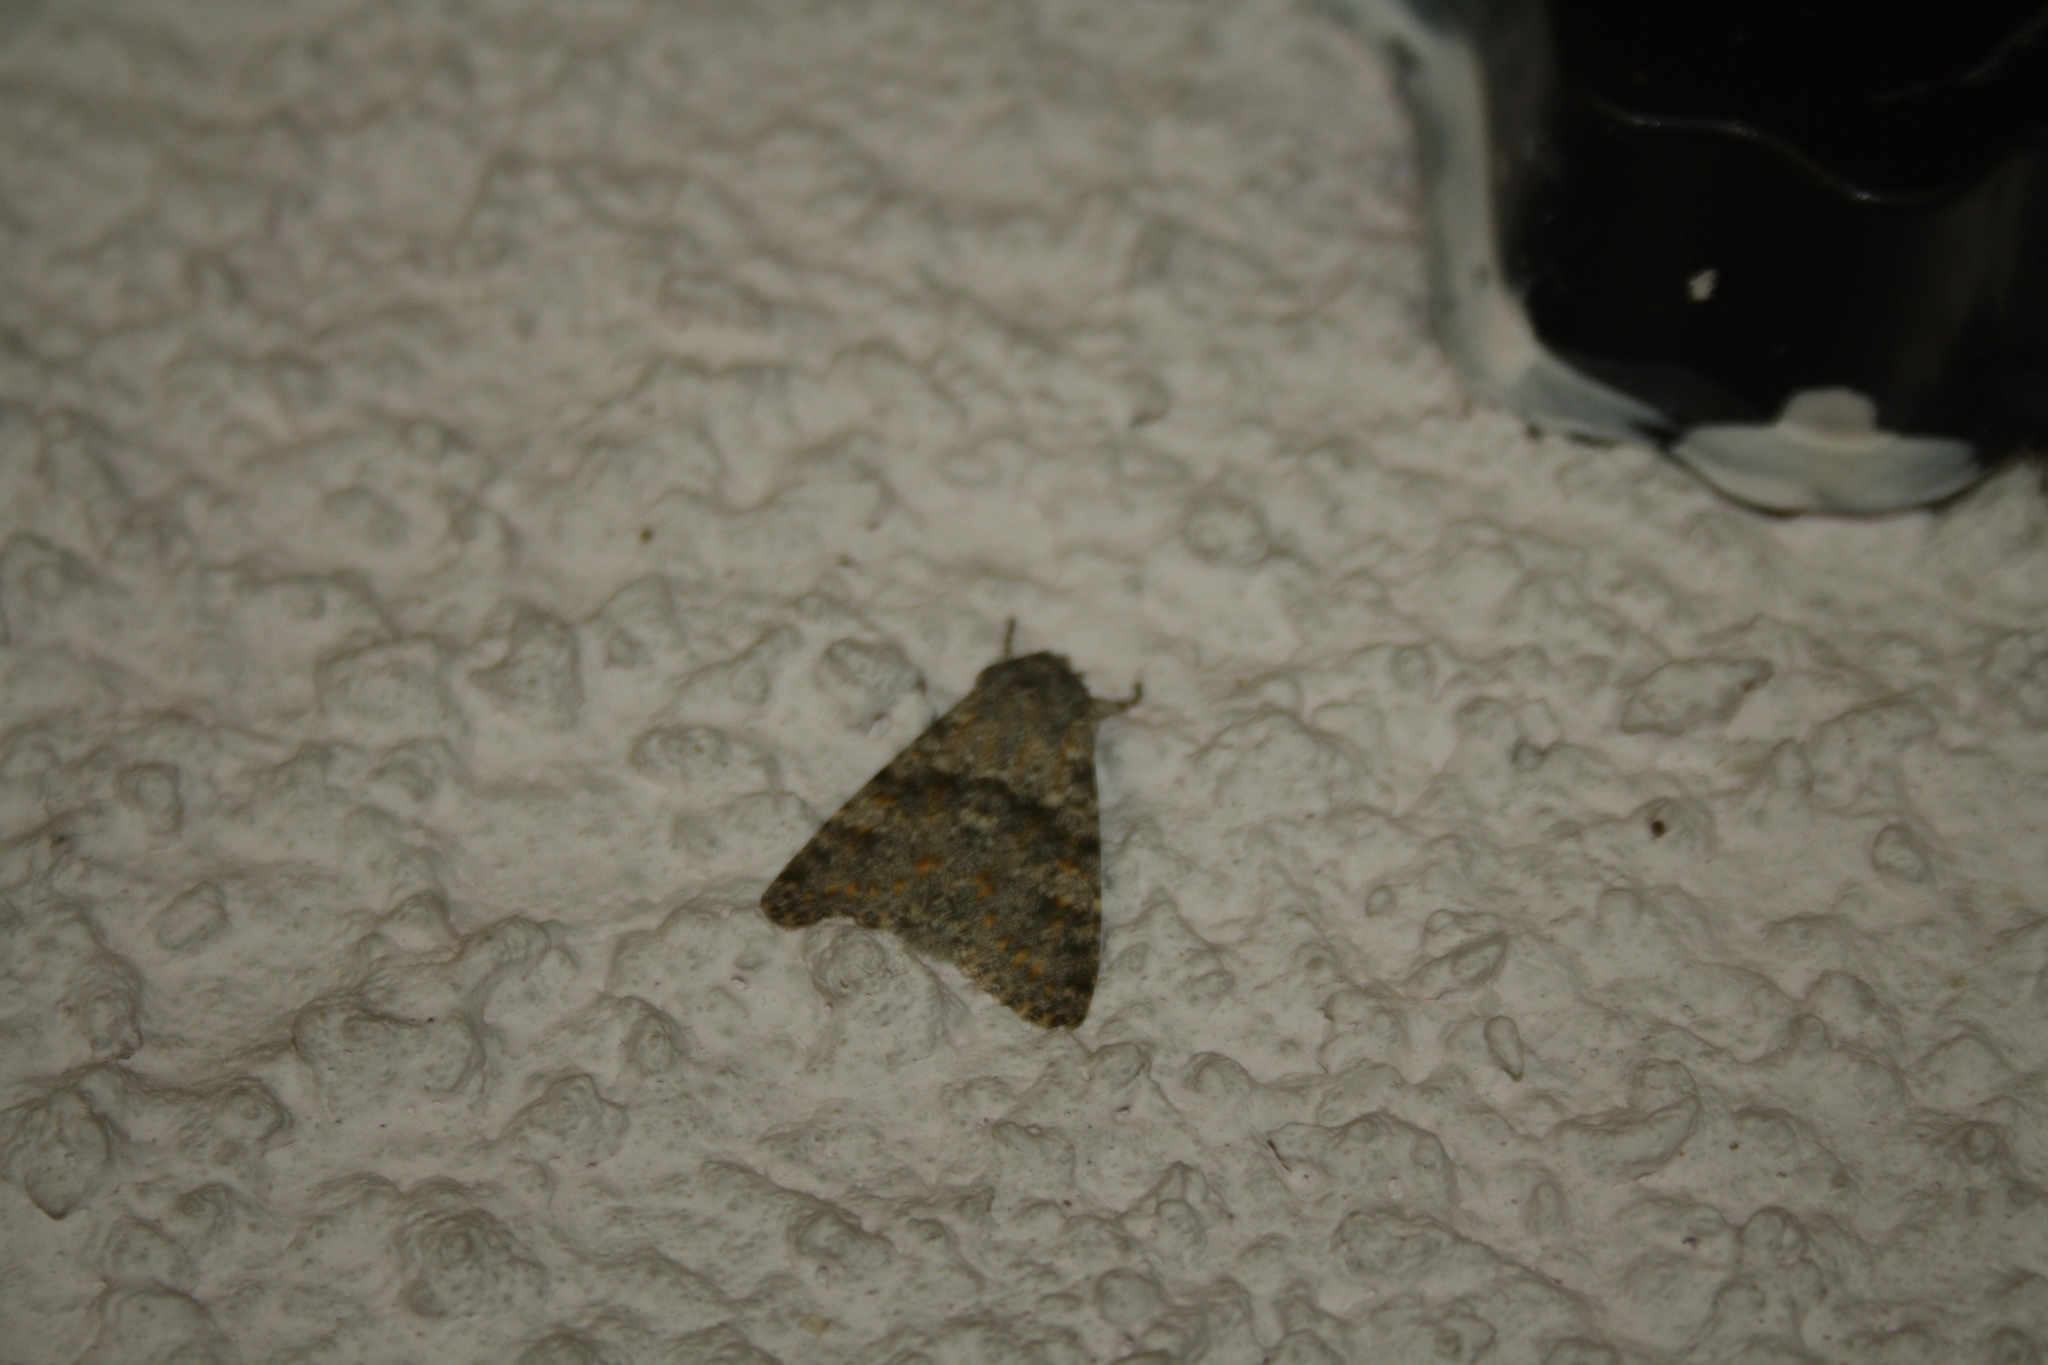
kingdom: Animalia
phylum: Arthropoda
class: Insecta
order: Lepidoptera
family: Noctuidae
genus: Polymixis
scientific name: Polymixis rufocincta
